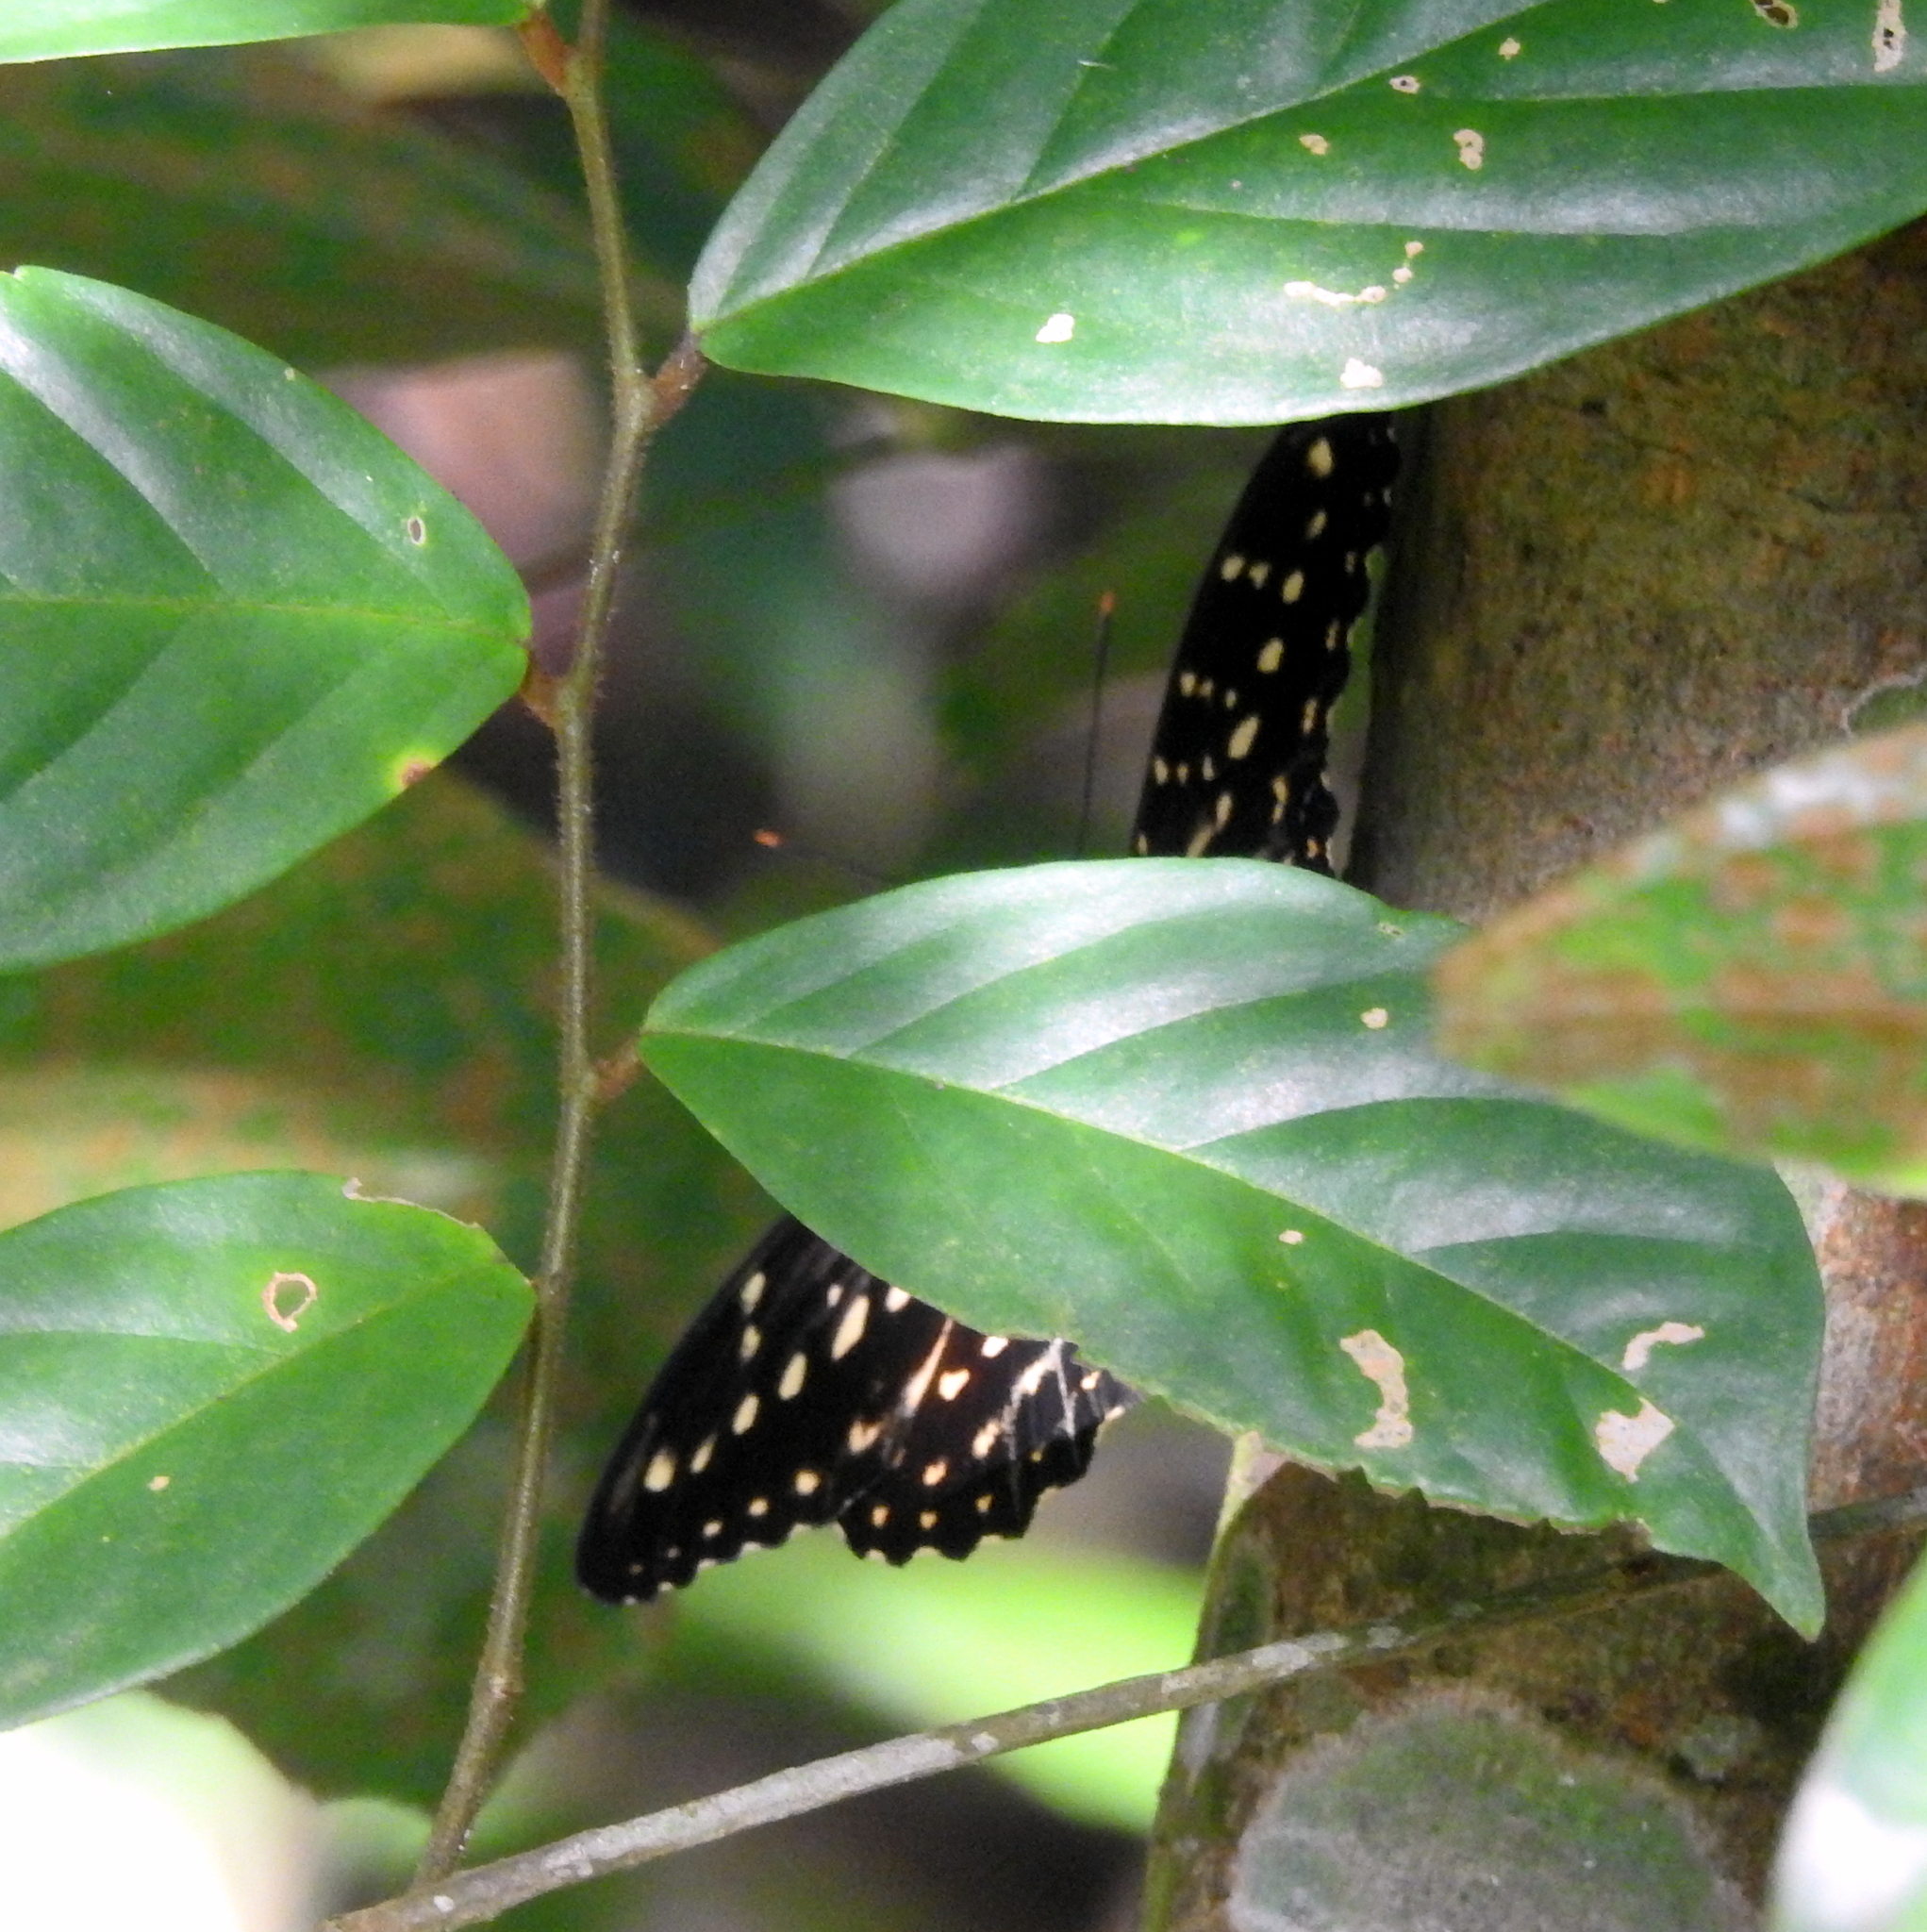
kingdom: Animalia
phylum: Arthropoda
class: Insecta
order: Lepidoptera
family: Nymphalidae
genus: Lexias
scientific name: Lexias pardalis
